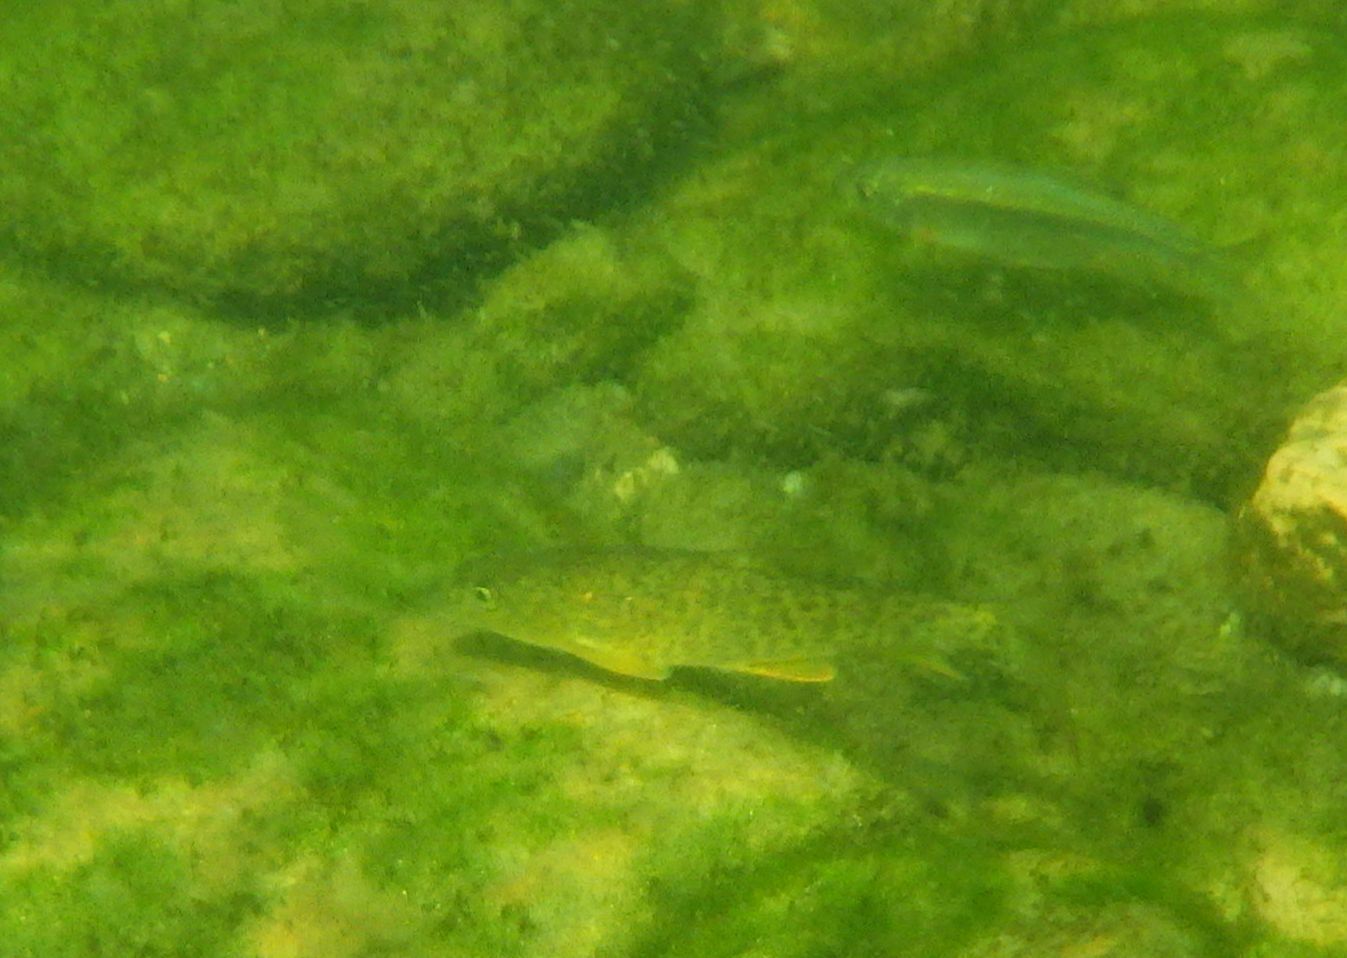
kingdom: Animalia
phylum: Chordata
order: Cypriniformes
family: Cyprinidae
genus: Barbus
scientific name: Barbus meridionalis
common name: Mediterranean barbel
